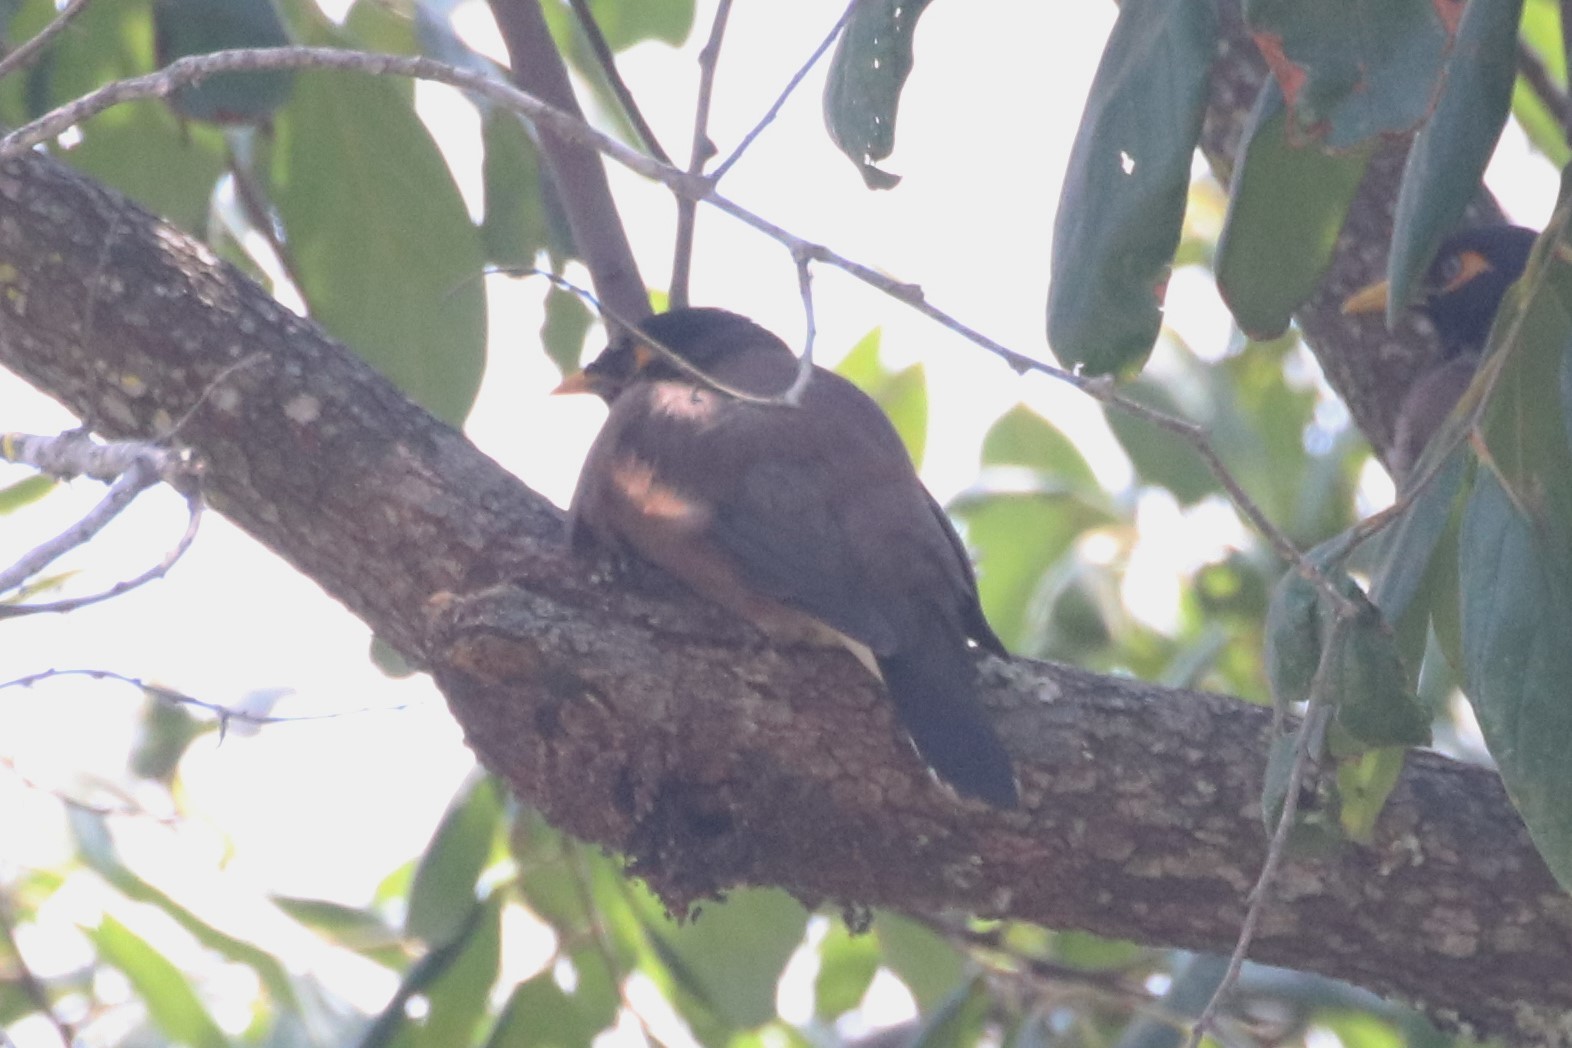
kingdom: Animalia
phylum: Chordata
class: Aves
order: Passeriformes
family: Sturnidae
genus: Acridotheres
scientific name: Acridotheres tristis
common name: Common myna
